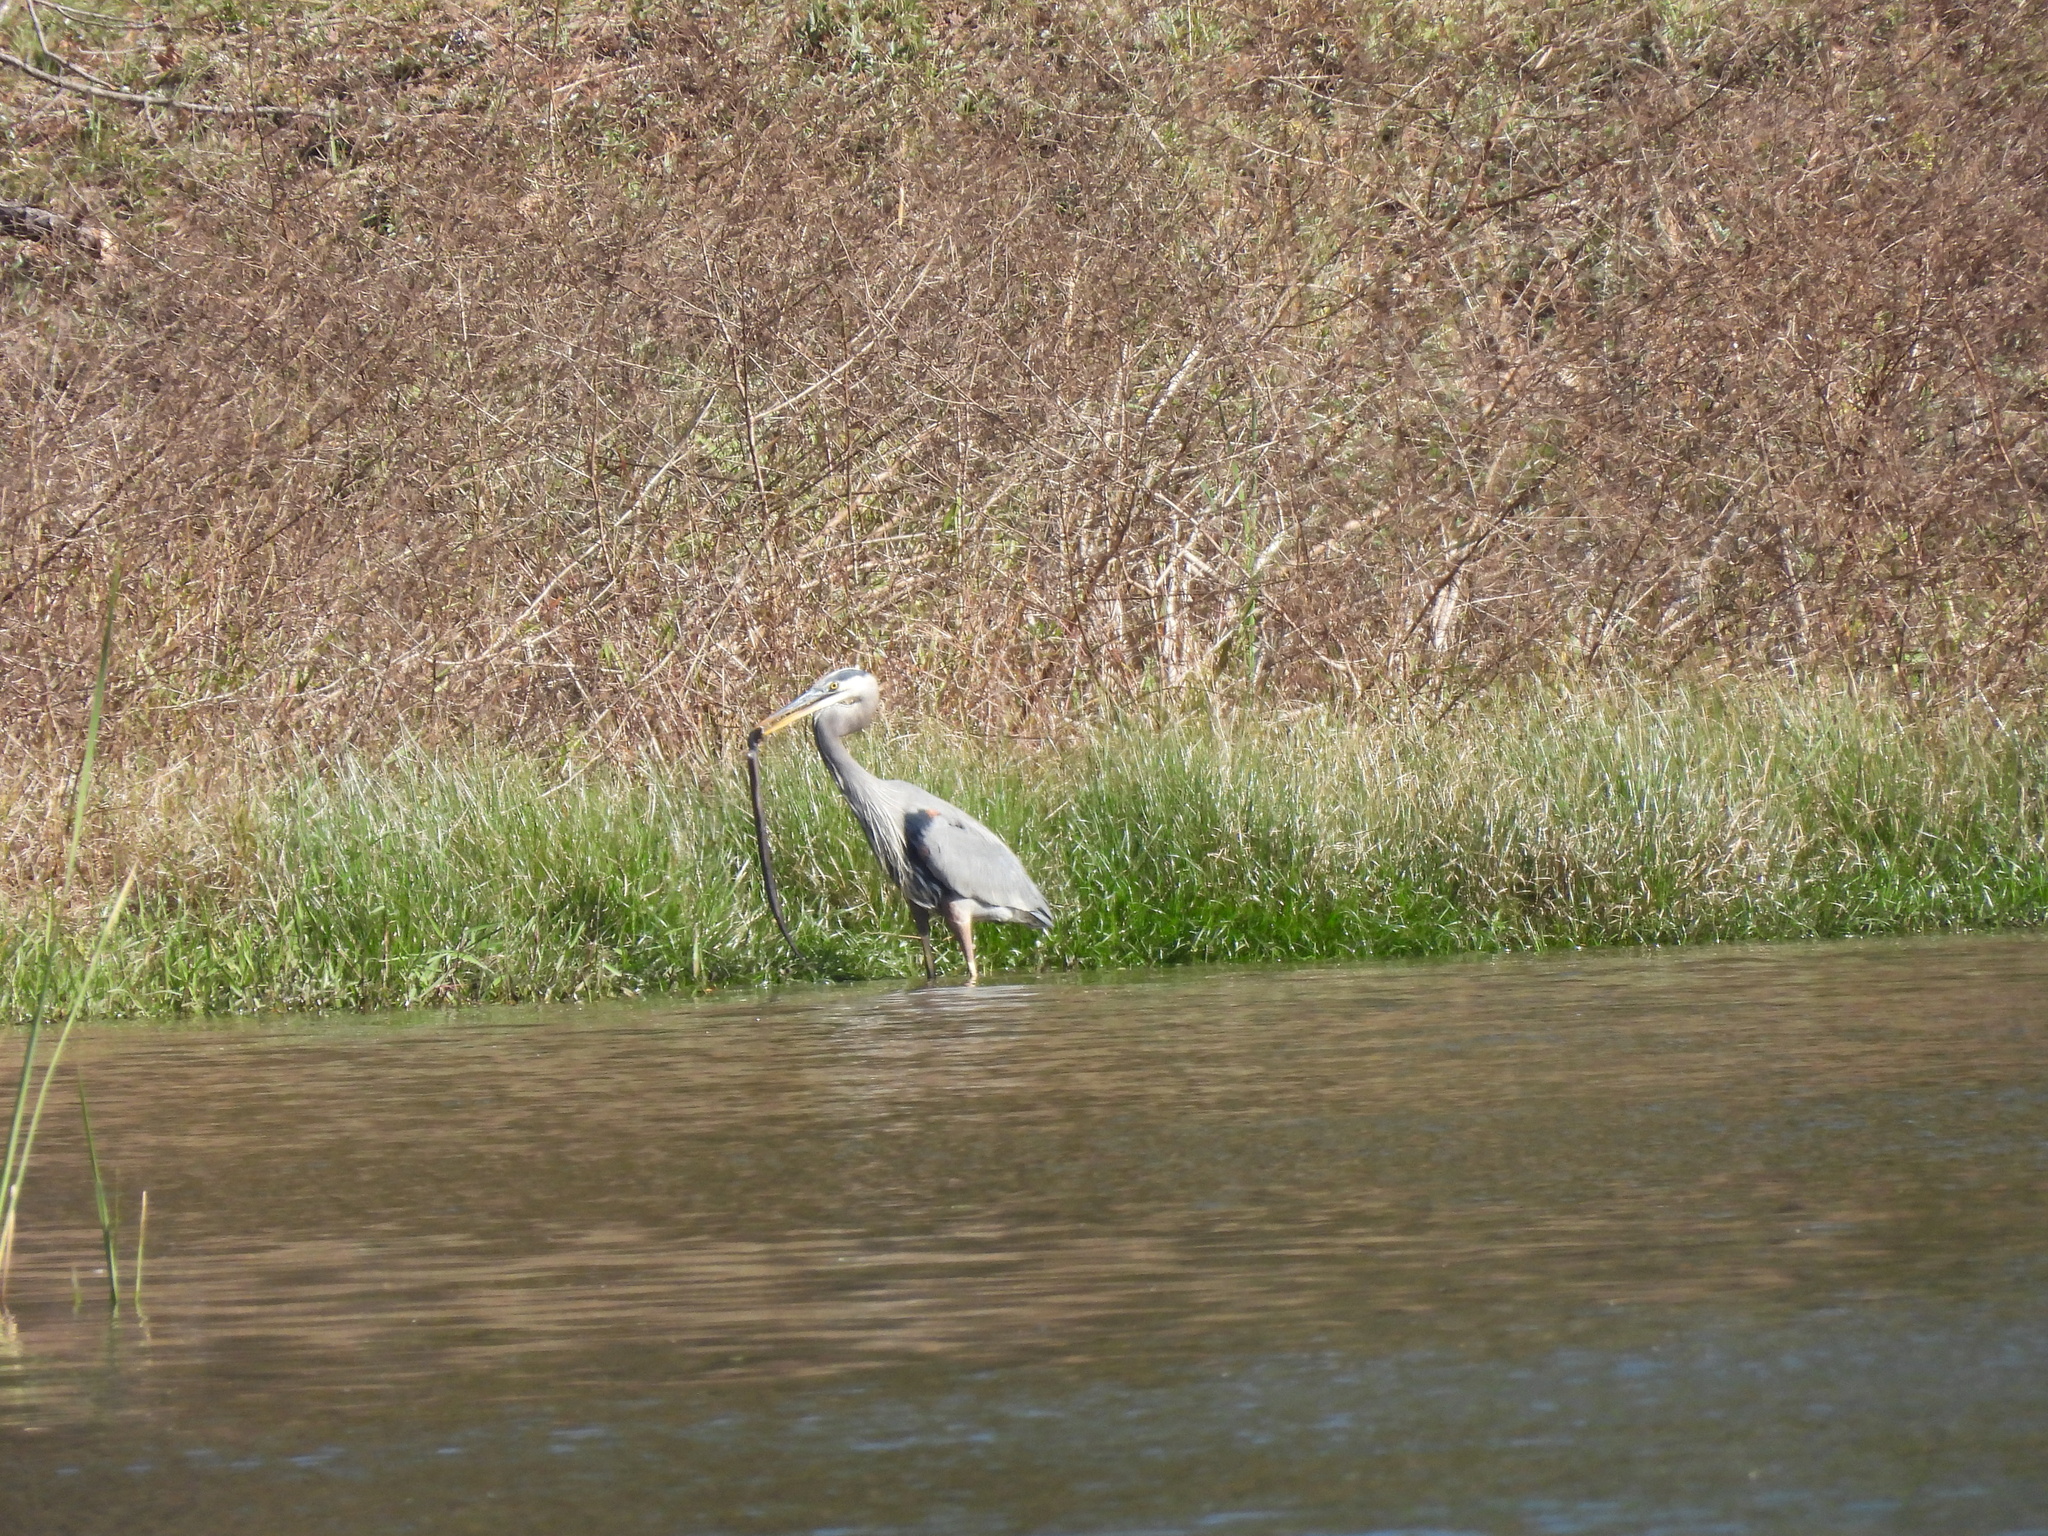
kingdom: Animalia
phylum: Chordata
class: Amphibia
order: Caudata
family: Amphiumidae
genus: Amphiuma
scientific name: Amphiuma
